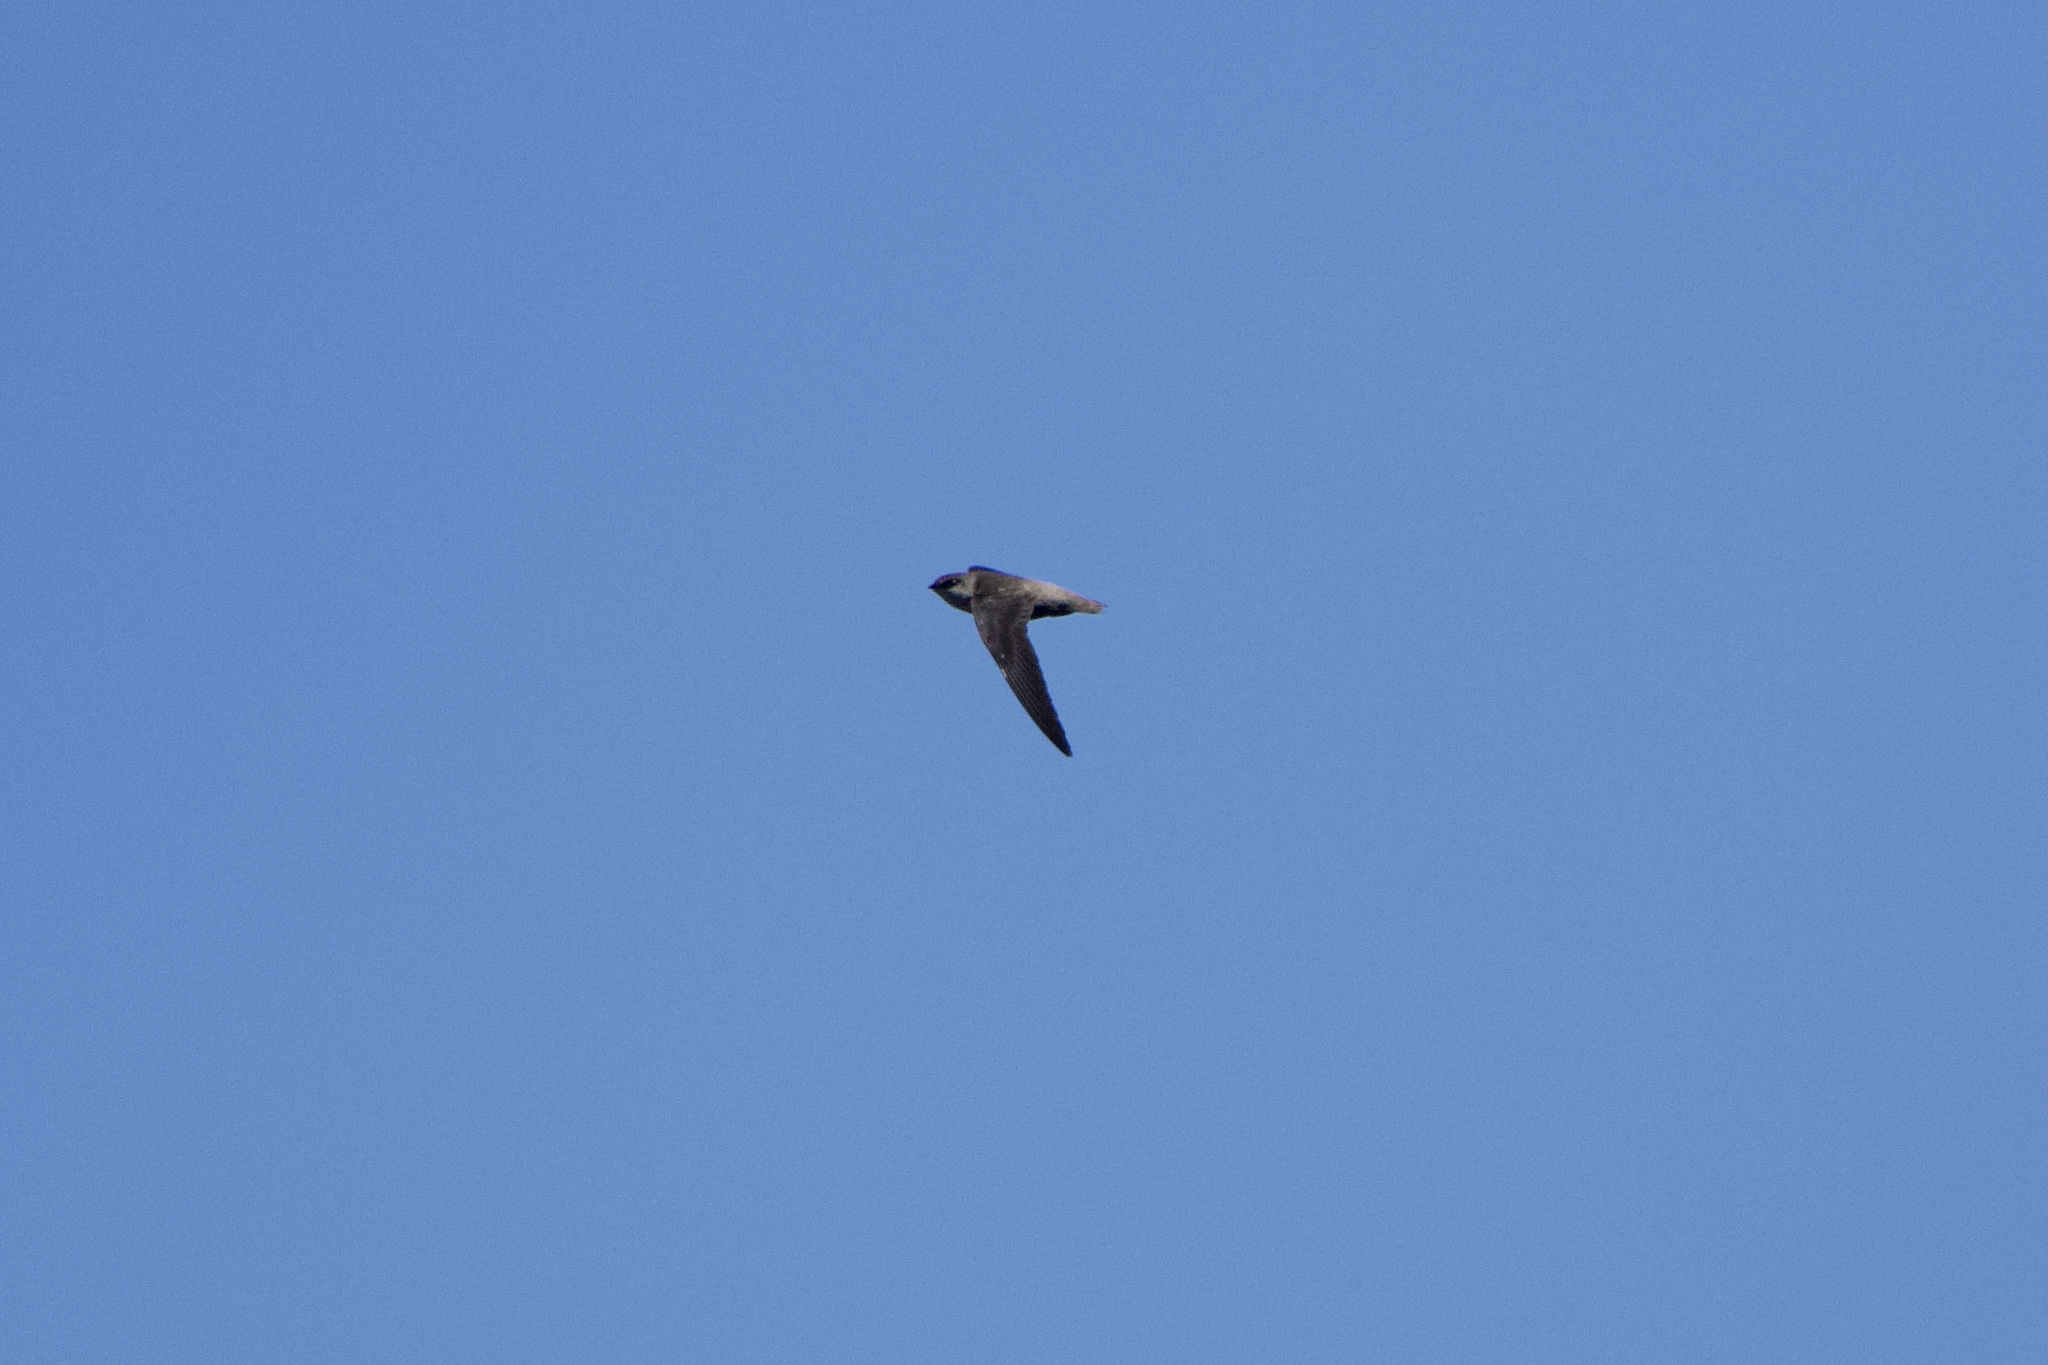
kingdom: Animalia
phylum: Chordata
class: Aves
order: Apodiformes
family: Apodidae
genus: Chaetura
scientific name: Chaetura vauxi
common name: Vaux's swift
